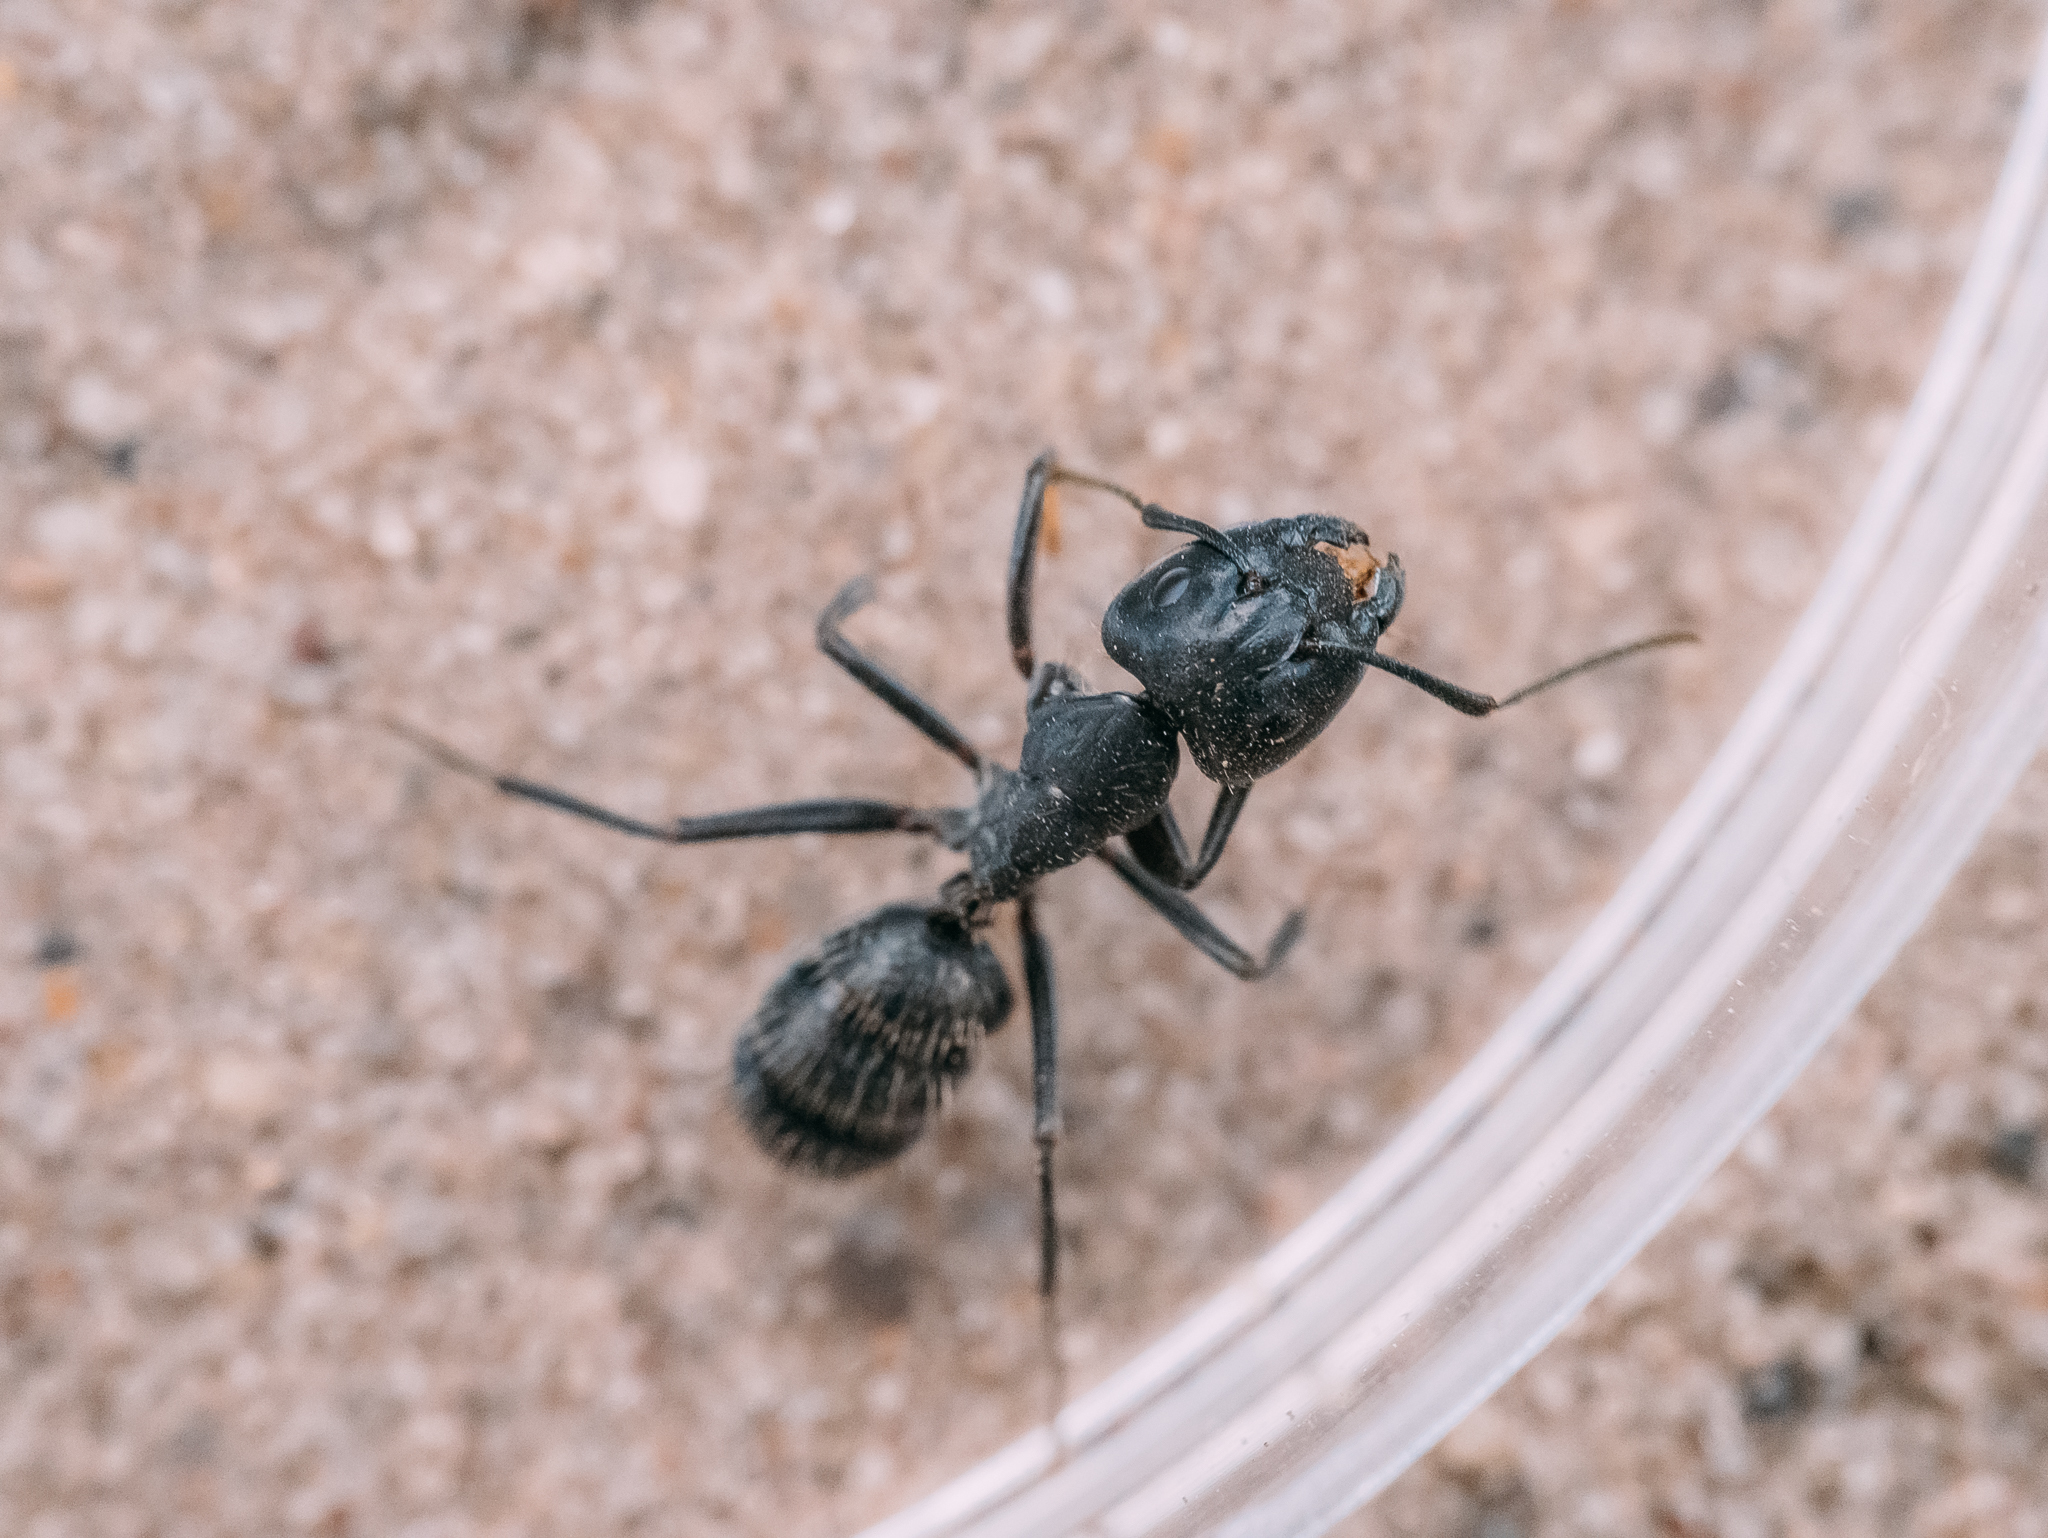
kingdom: Animalia
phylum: Arthropoda
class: Insecta
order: Hymenoptera
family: Formicidae
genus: Camponotus
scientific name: Camponotus vagus
